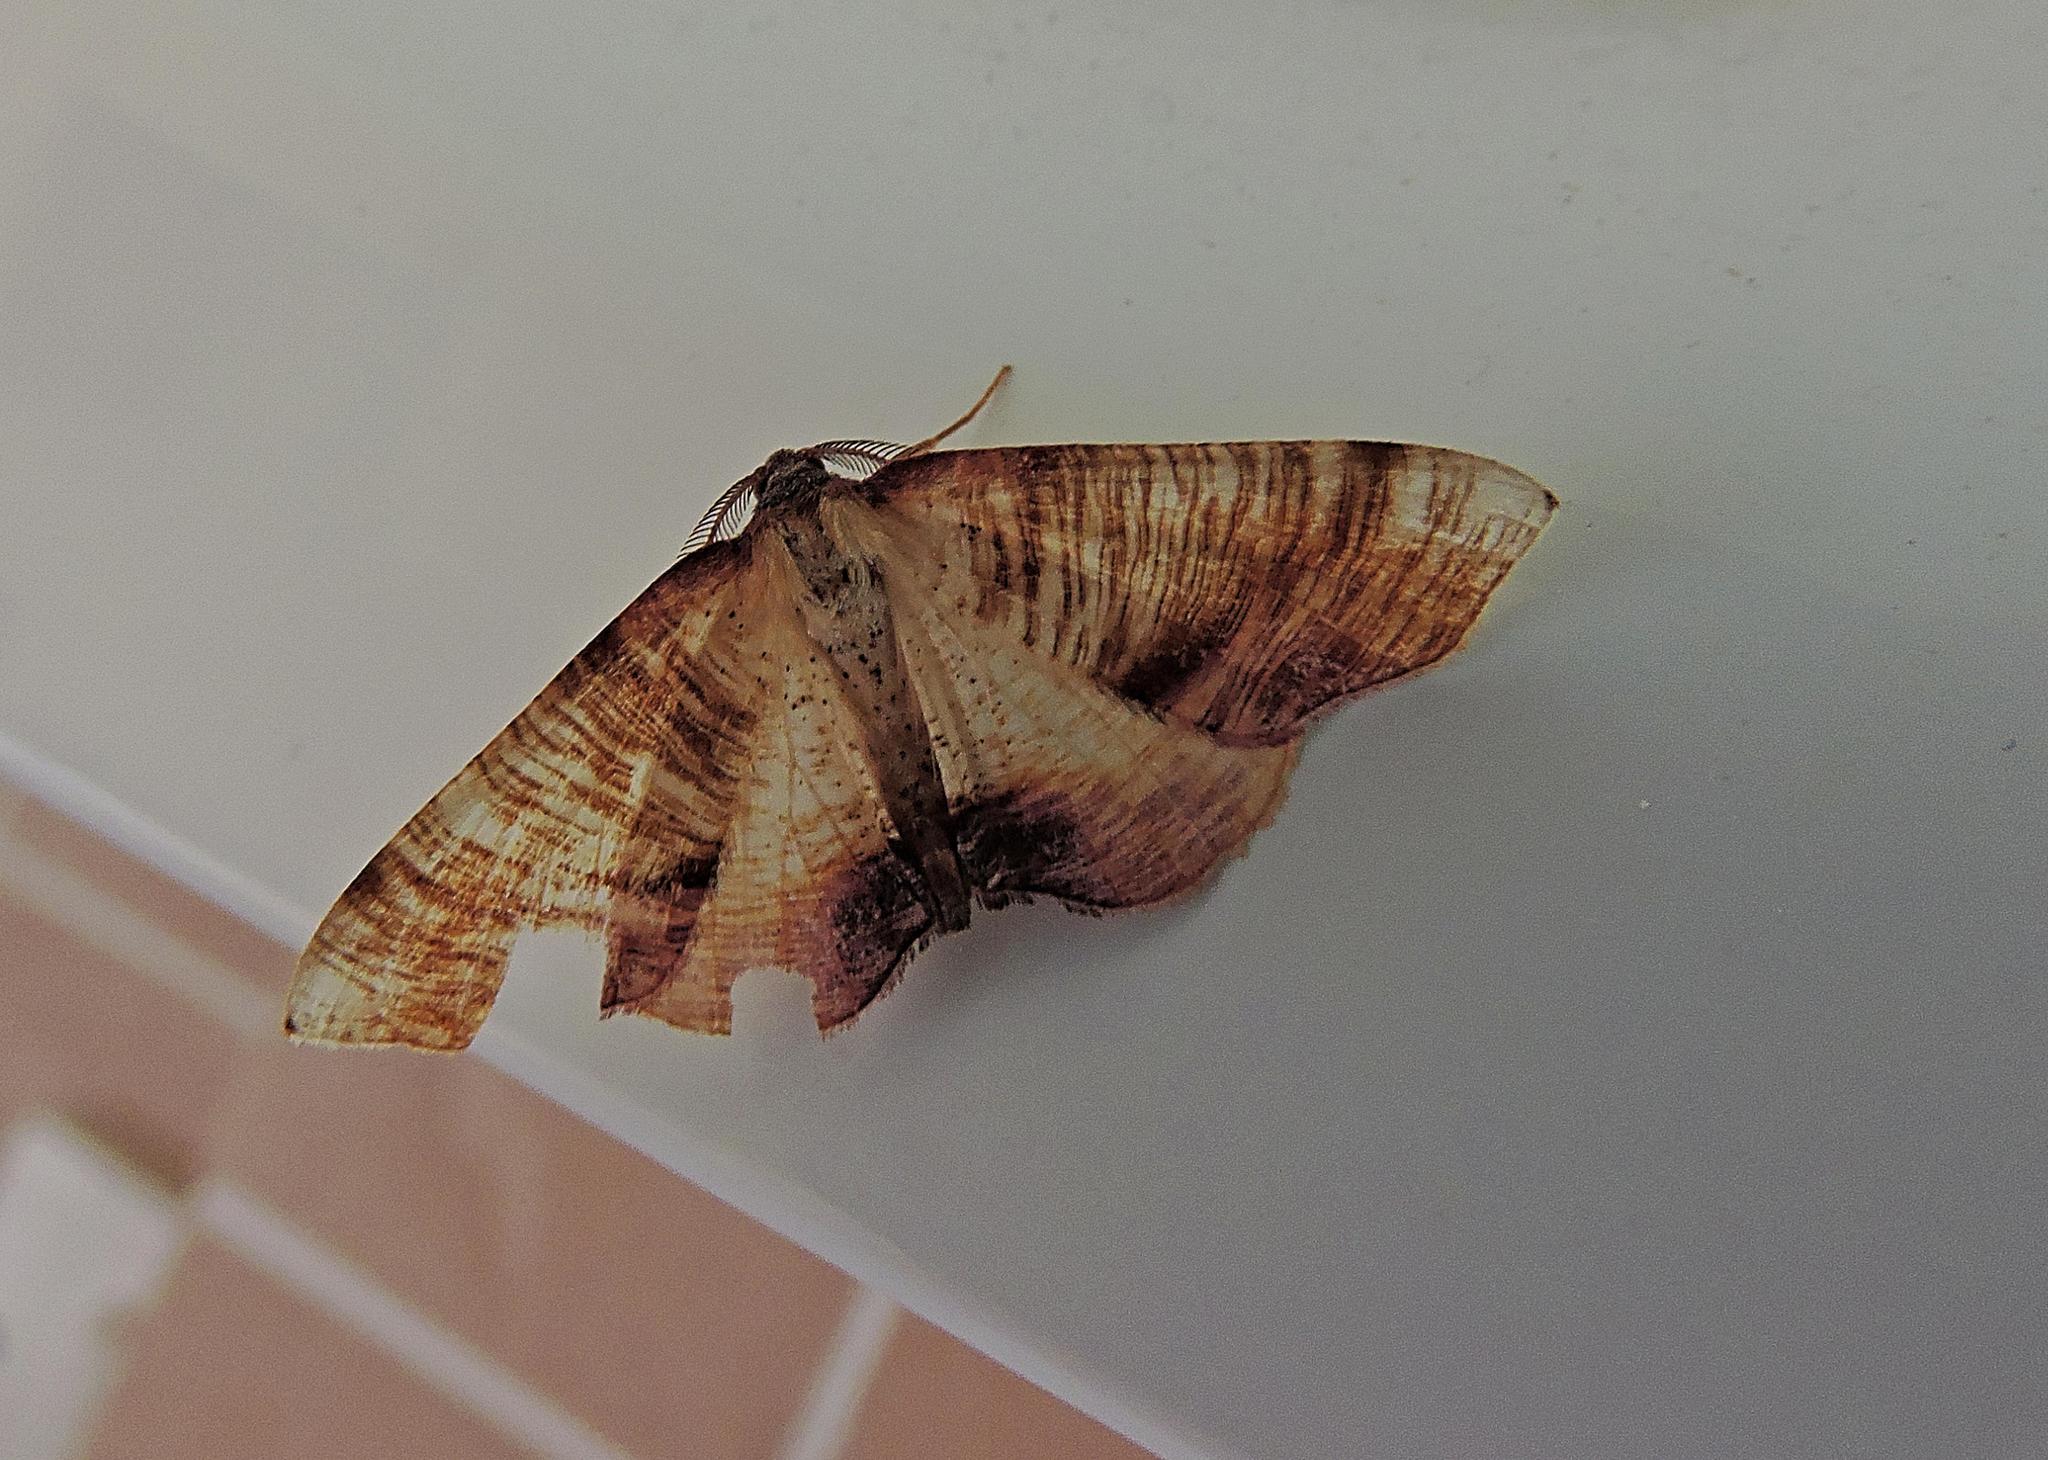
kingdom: Animalia
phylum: Arthropoda
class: Insecta
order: Lepidoptera
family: Geometridae
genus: Plagodis
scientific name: Plagodis dolabraria
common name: Scorched wing
